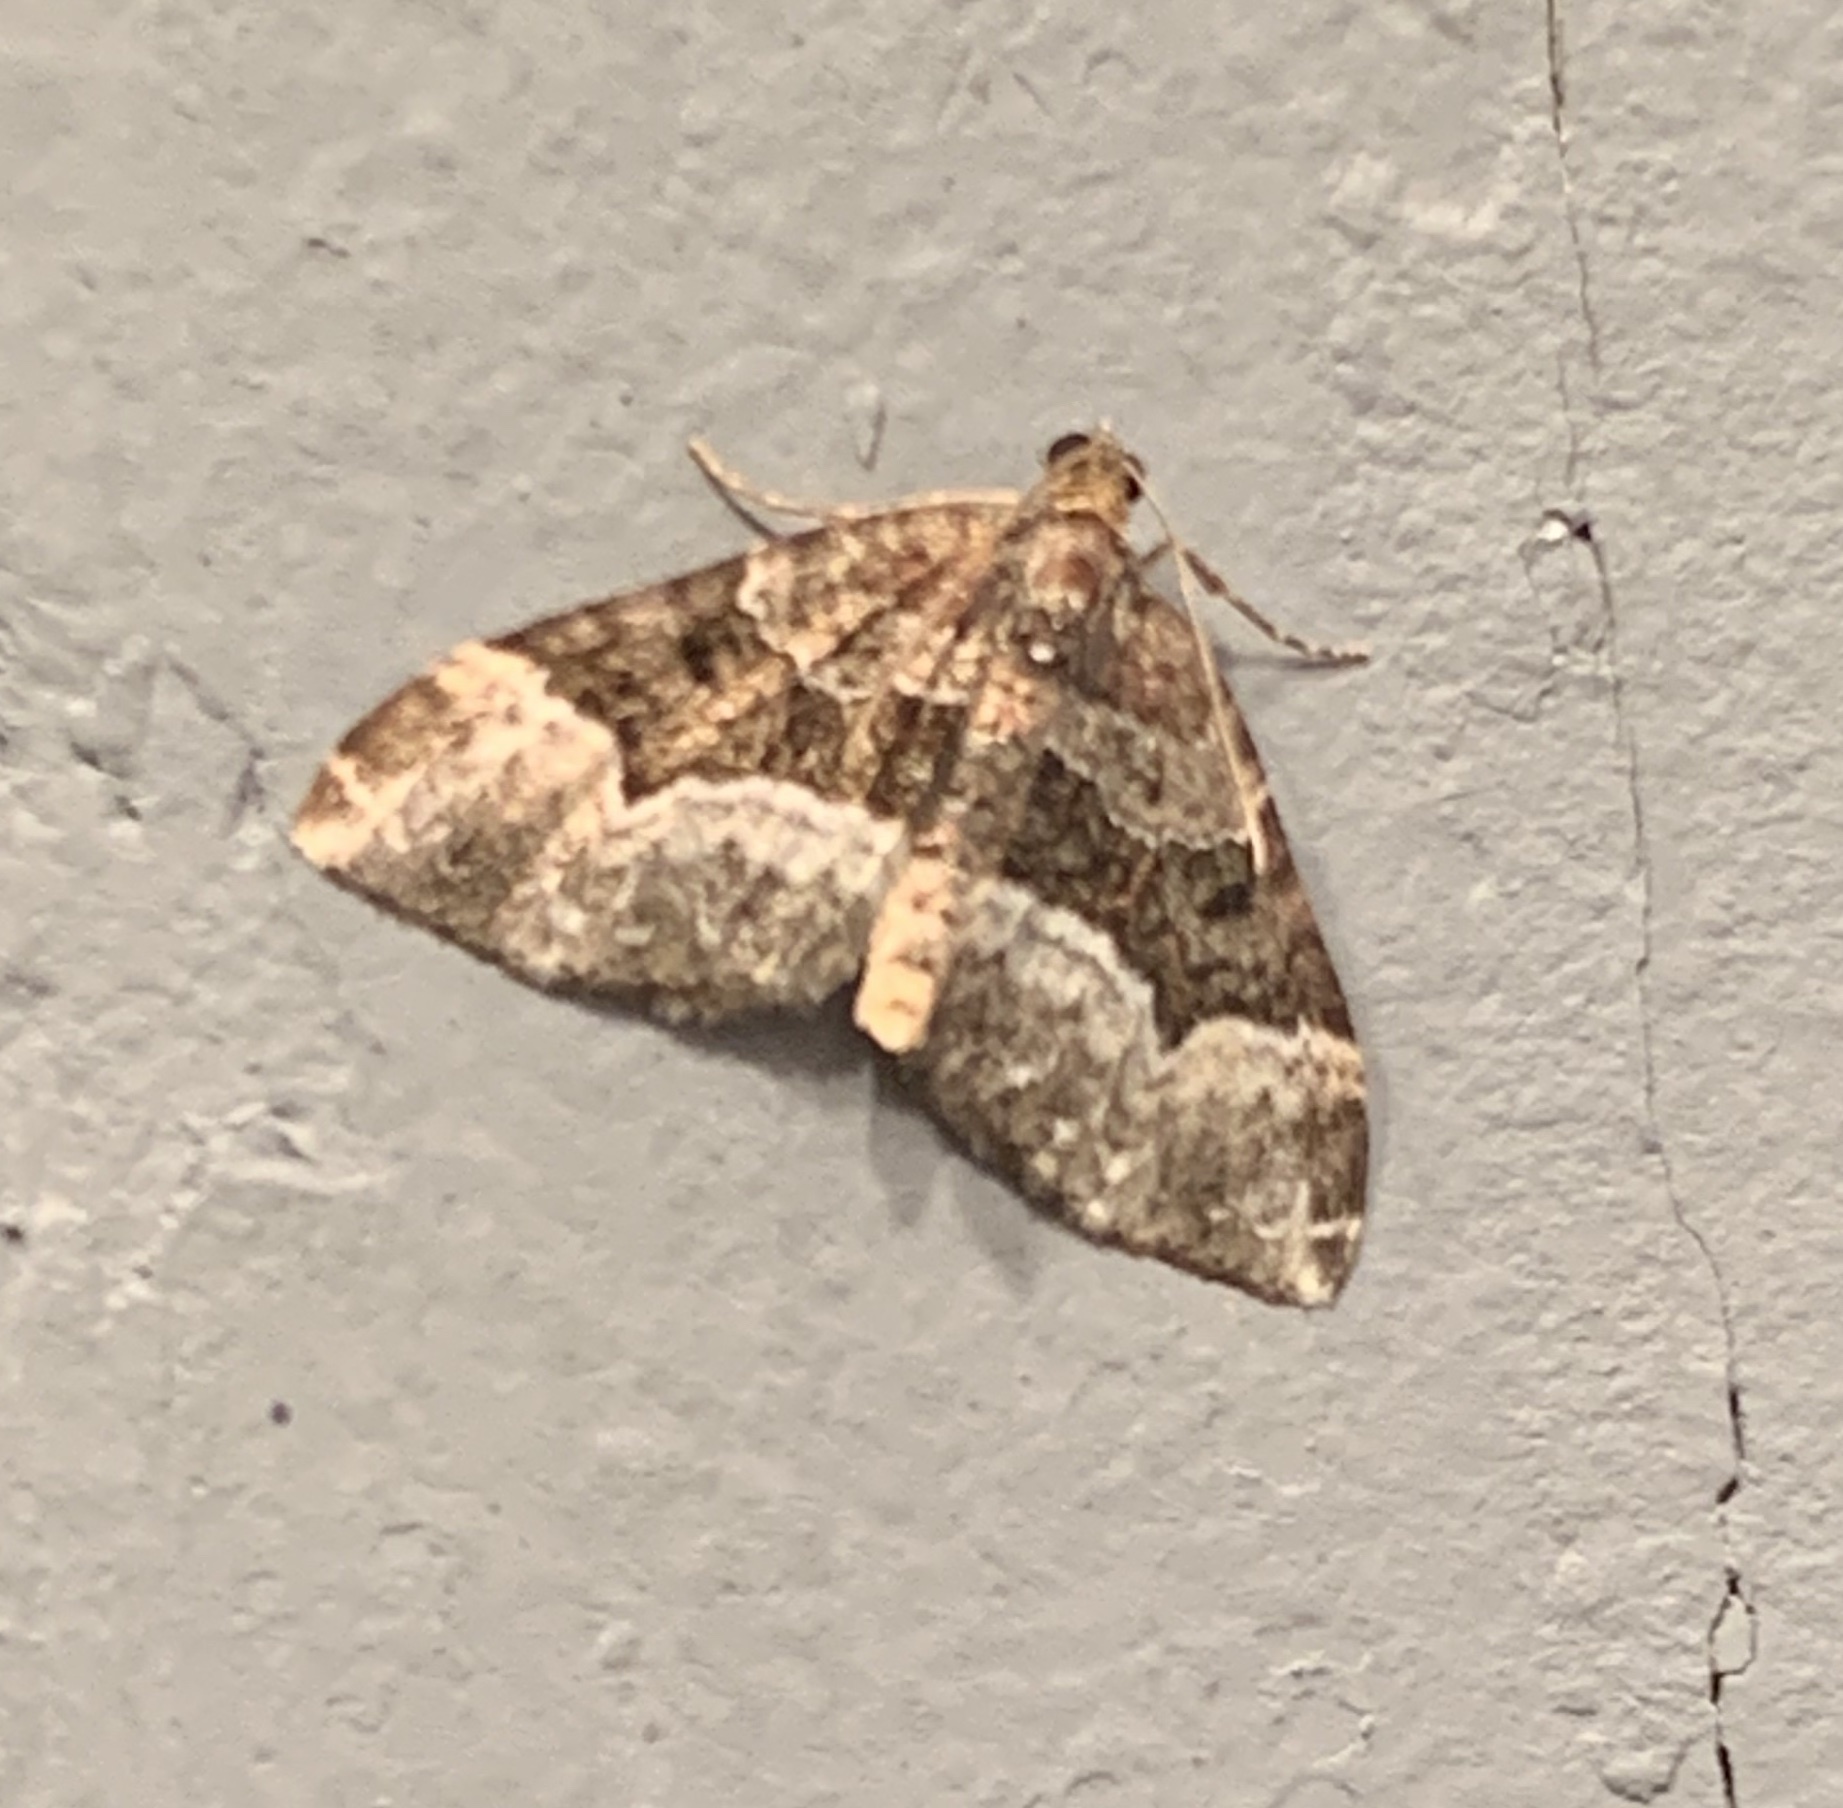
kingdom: Animalia
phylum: Arthropoda
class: Insecta
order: Lepidoptera
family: Geometridae
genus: Euphyia
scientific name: Euphyia intermediata
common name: Sharp-angled carpet
